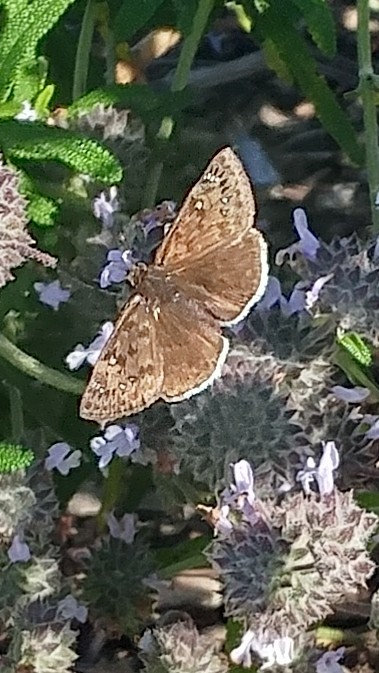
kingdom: Animalia
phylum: Arthropoda
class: Insecta
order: Lepidoptera
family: Hesperiidae
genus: Erynnis
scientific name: Erynnis tristis
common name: Mournful duskywing
